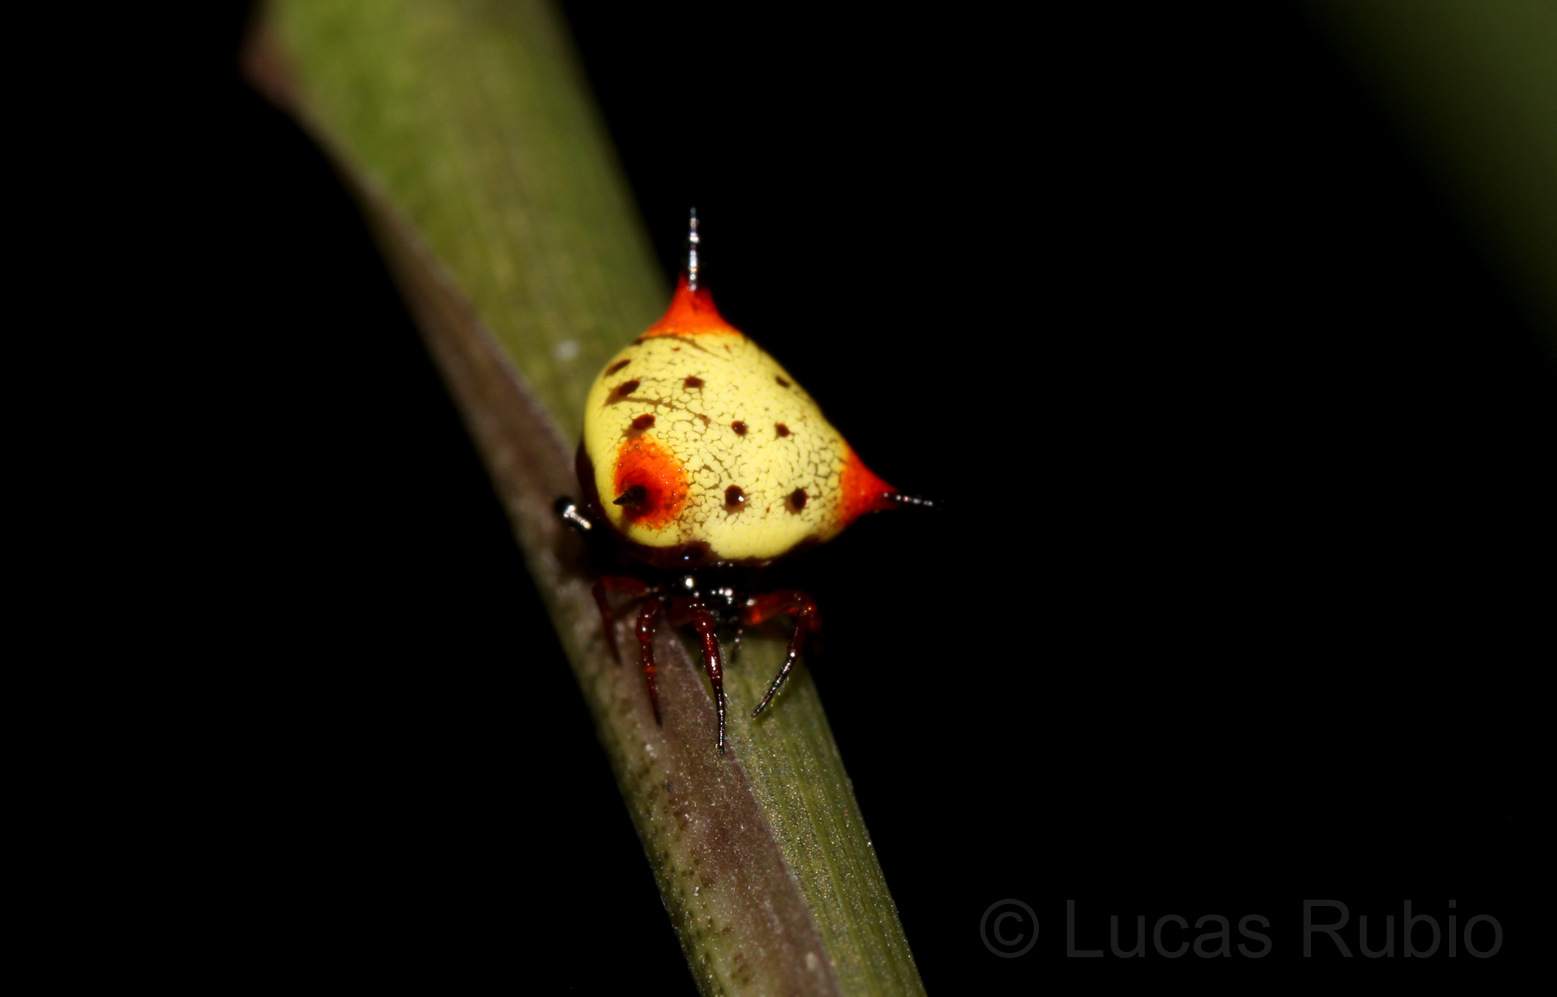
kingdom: Animalia
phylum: Arthropoda
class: Arachnida
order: Araneae
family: Theridiidae
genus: Phoroncidia
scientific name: Phoroncidia reimoseri
